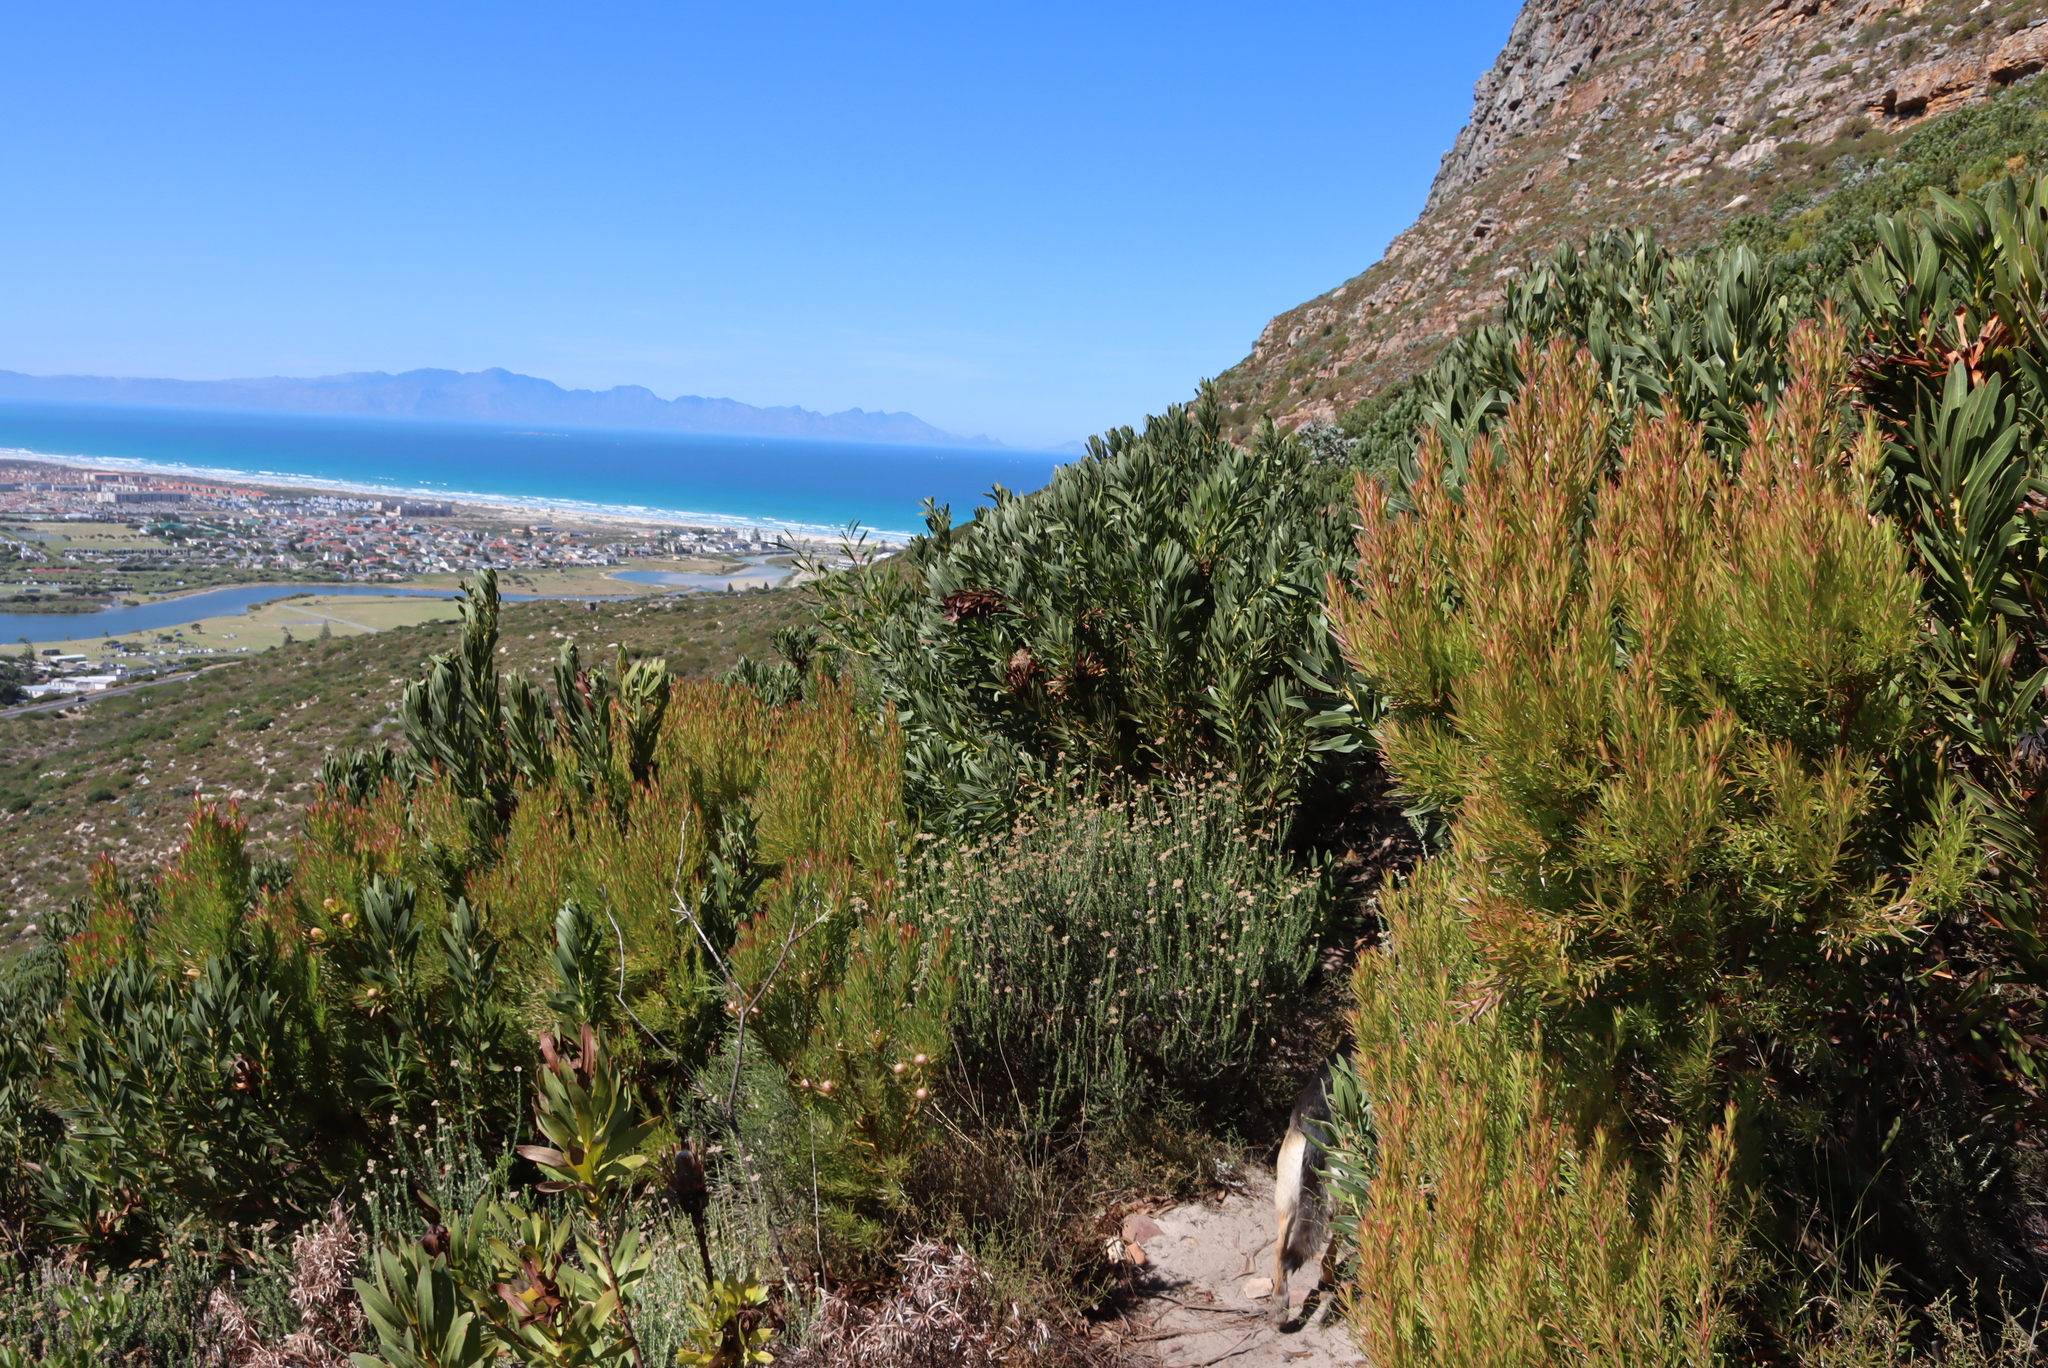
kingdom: Plantae
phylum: Tracheophyta
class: Magnoliopsida
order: Proteales
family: Proteaceae
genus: Leucadendron
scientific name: Leucadendron xanthoconus
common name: Sickle-leaf conebush
